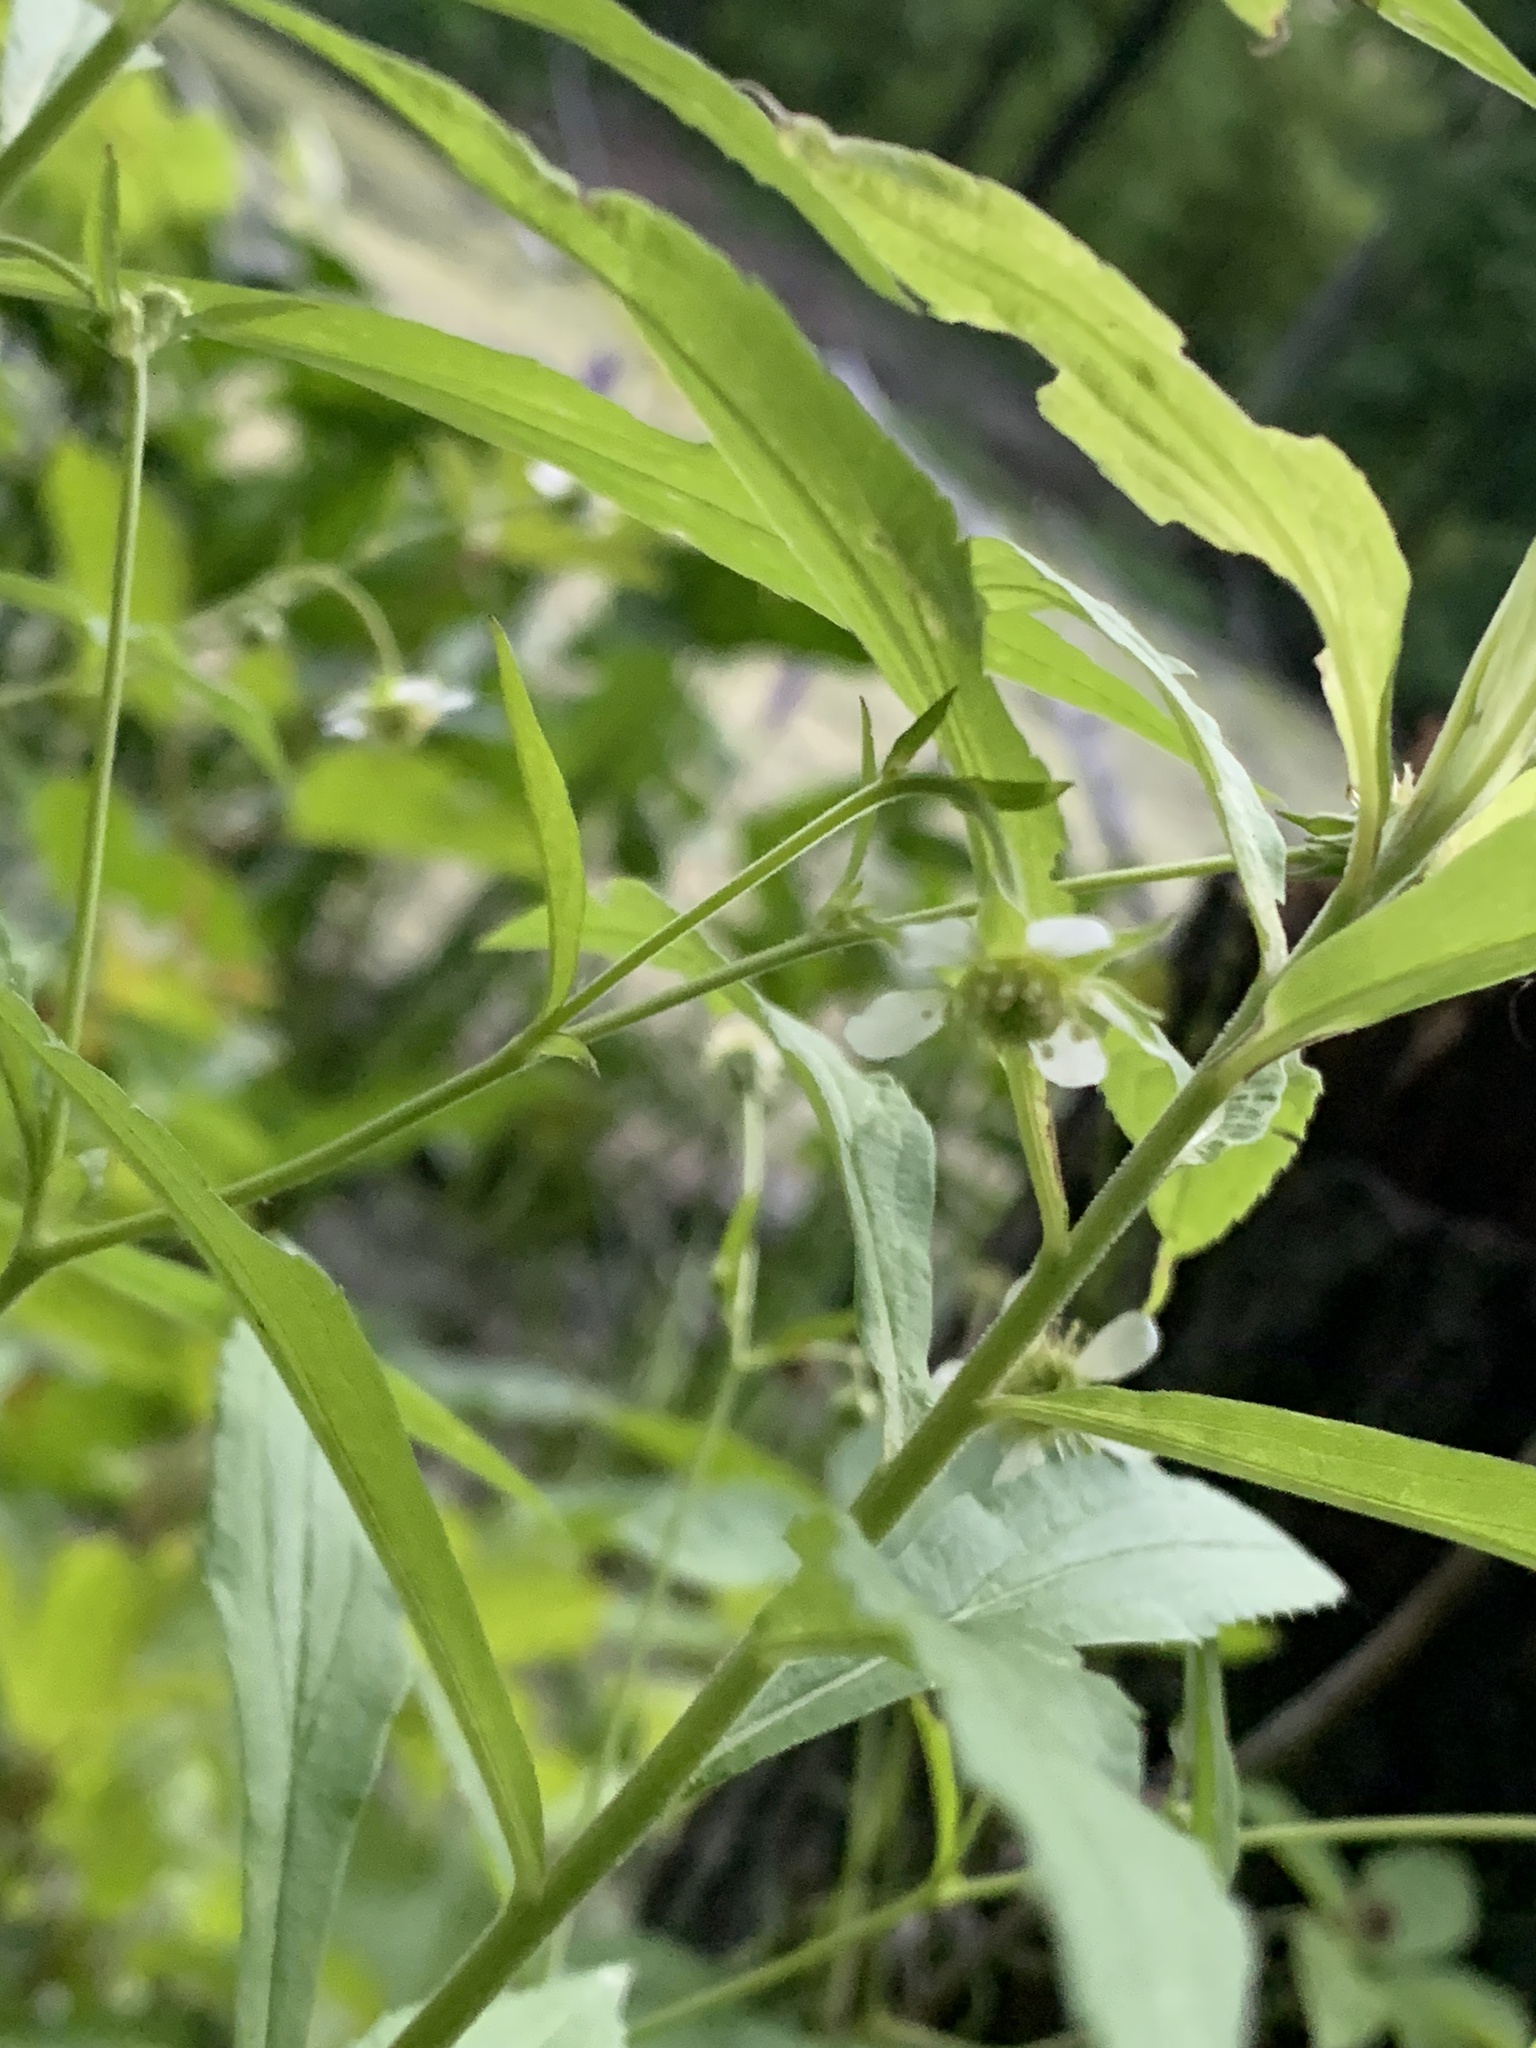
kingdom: Plantae
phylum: Tracheophyta
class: Magnoliopsida
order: Rosales
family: Rosaceae
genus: Geum
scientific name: Geum canadense
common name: White avens
